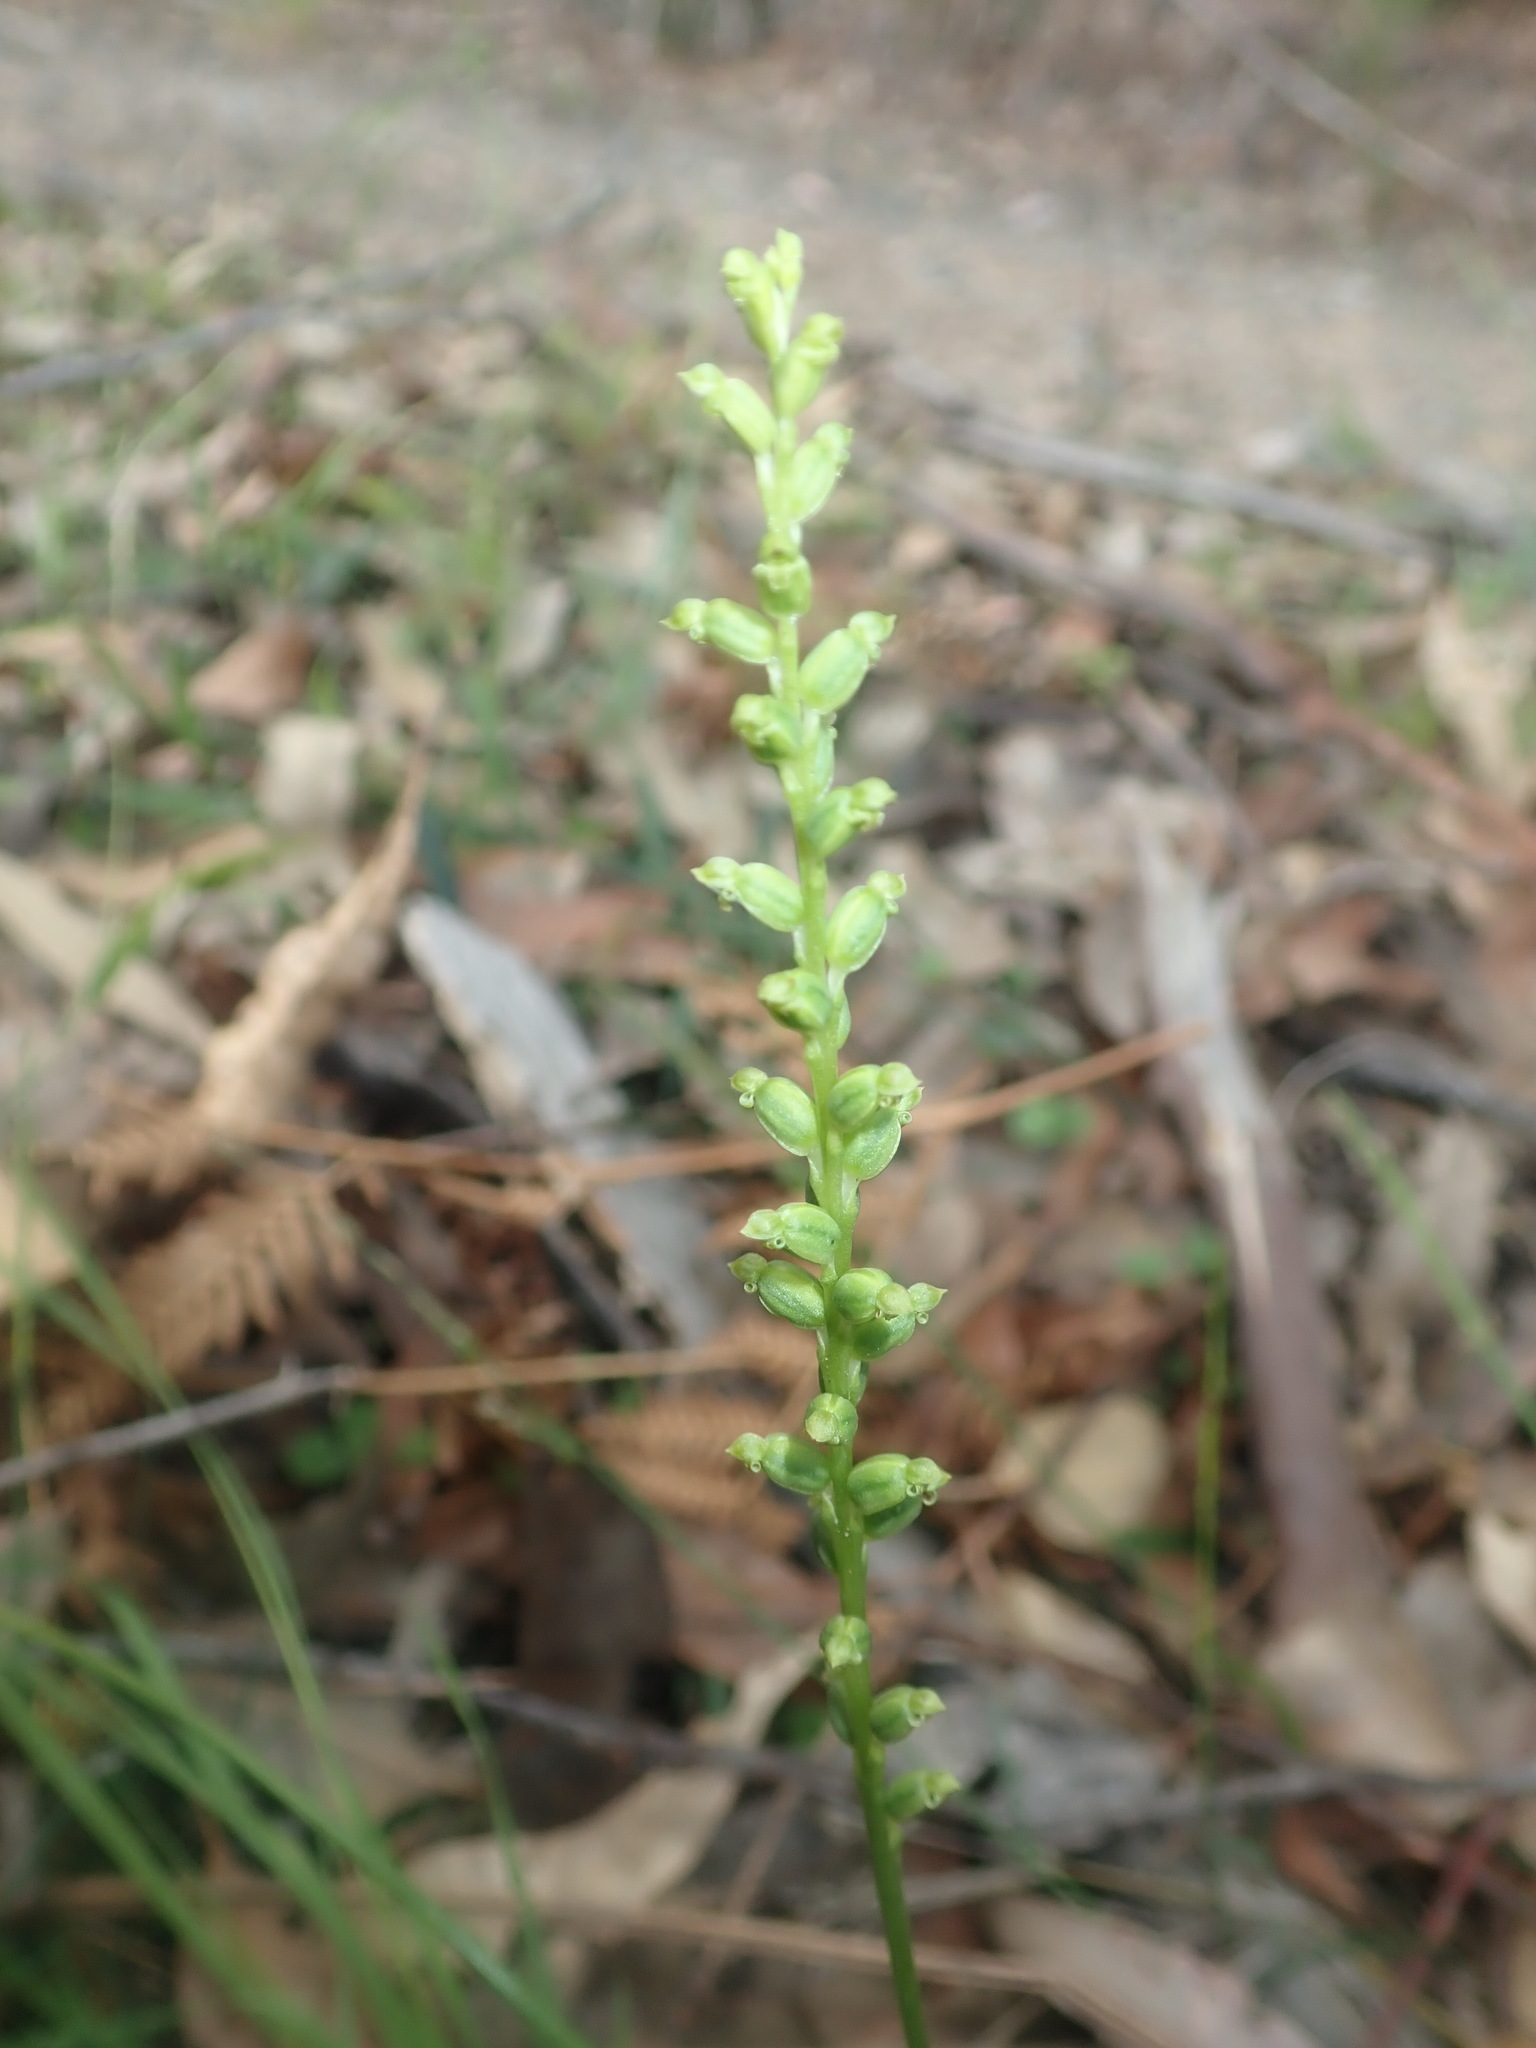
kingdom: Plantae
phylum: Tracheophyta
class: Liliopsida
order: Asparagales
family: Orchidaceae
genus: Microtis
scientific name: Microtis unifolia
